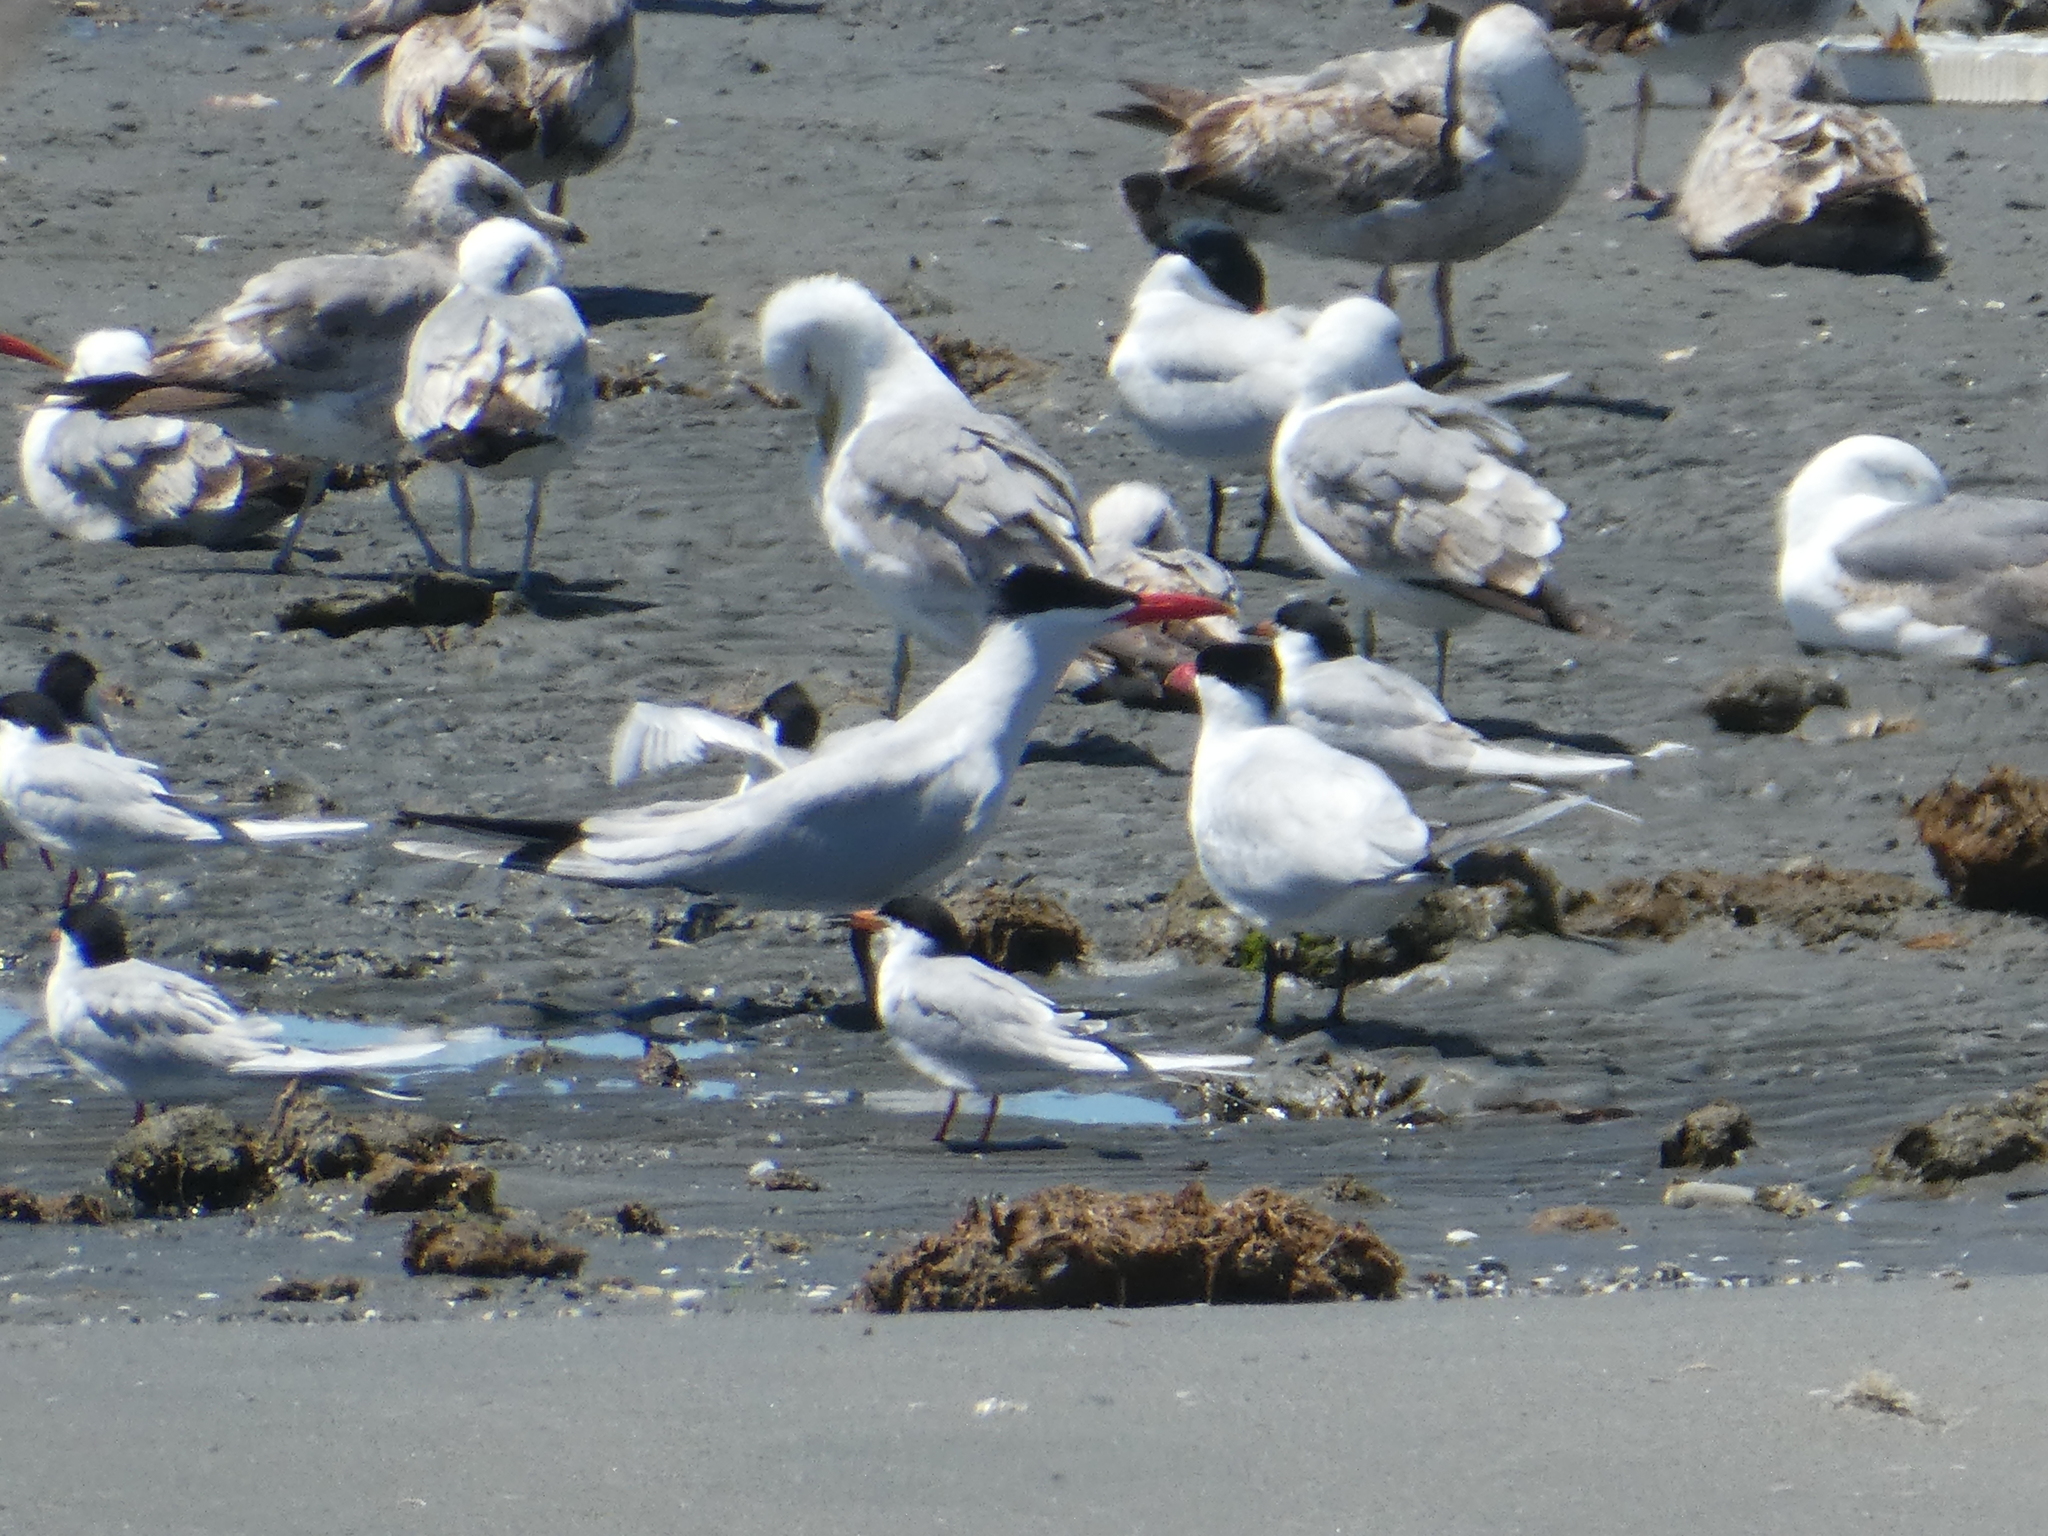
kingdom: Animalia
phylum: Chordata
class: Aves
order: Charadriiformes
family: Laridae
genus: Hydroprogne
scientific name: Hydroprogne caspia
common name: Caspian tern
